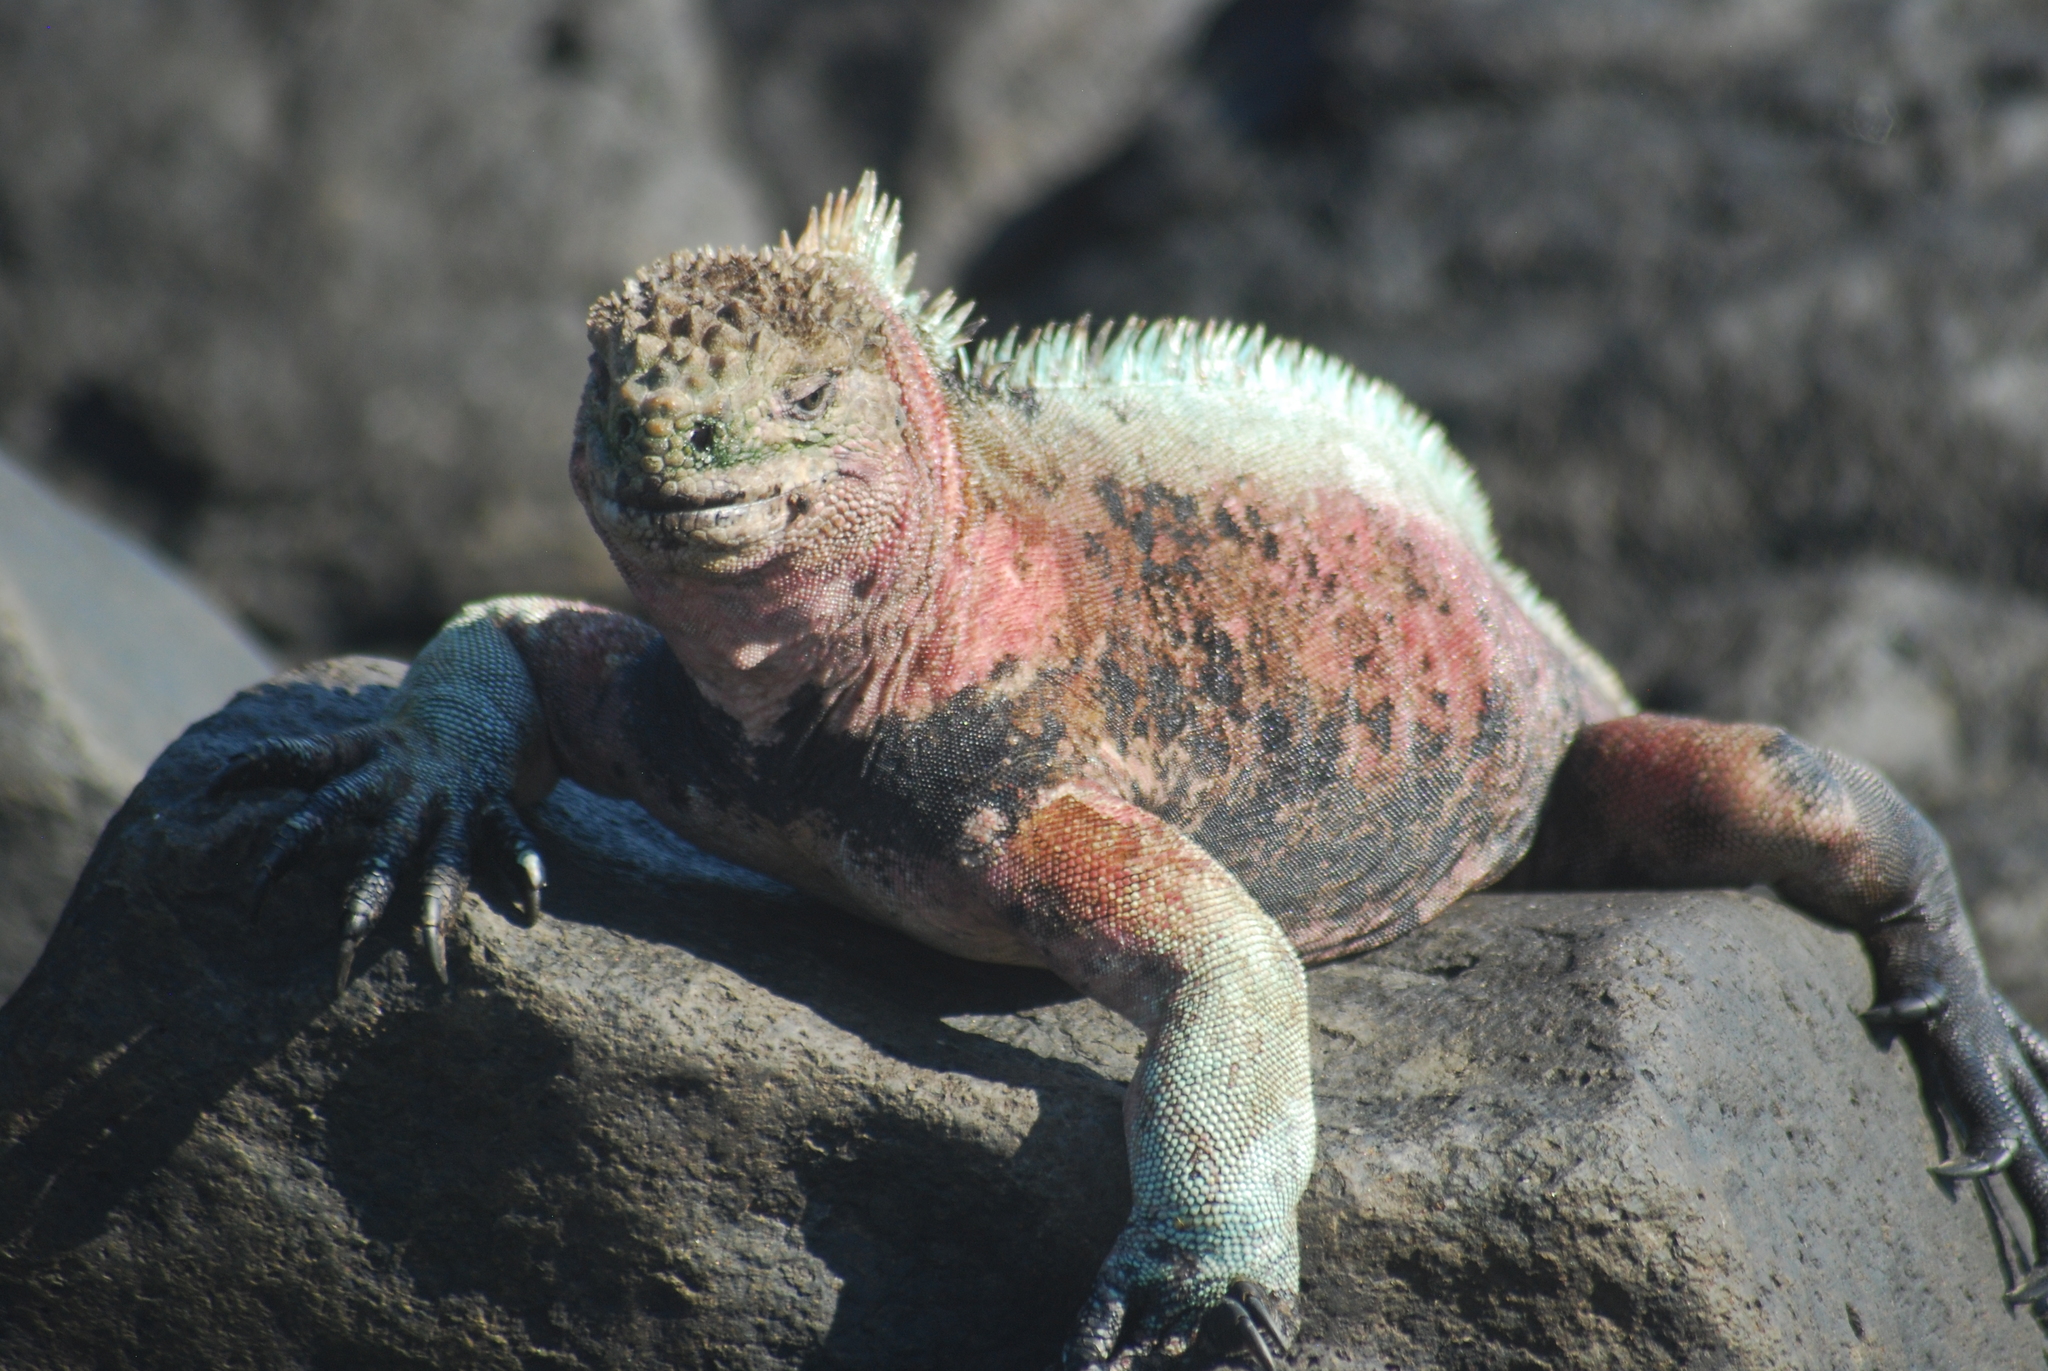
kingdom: Animalia
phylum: Chordata
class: Squamata
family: Iguanidae
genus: Amblyrhynchus
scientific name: Amblyrhynchus cristatus
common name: Marine iguana
